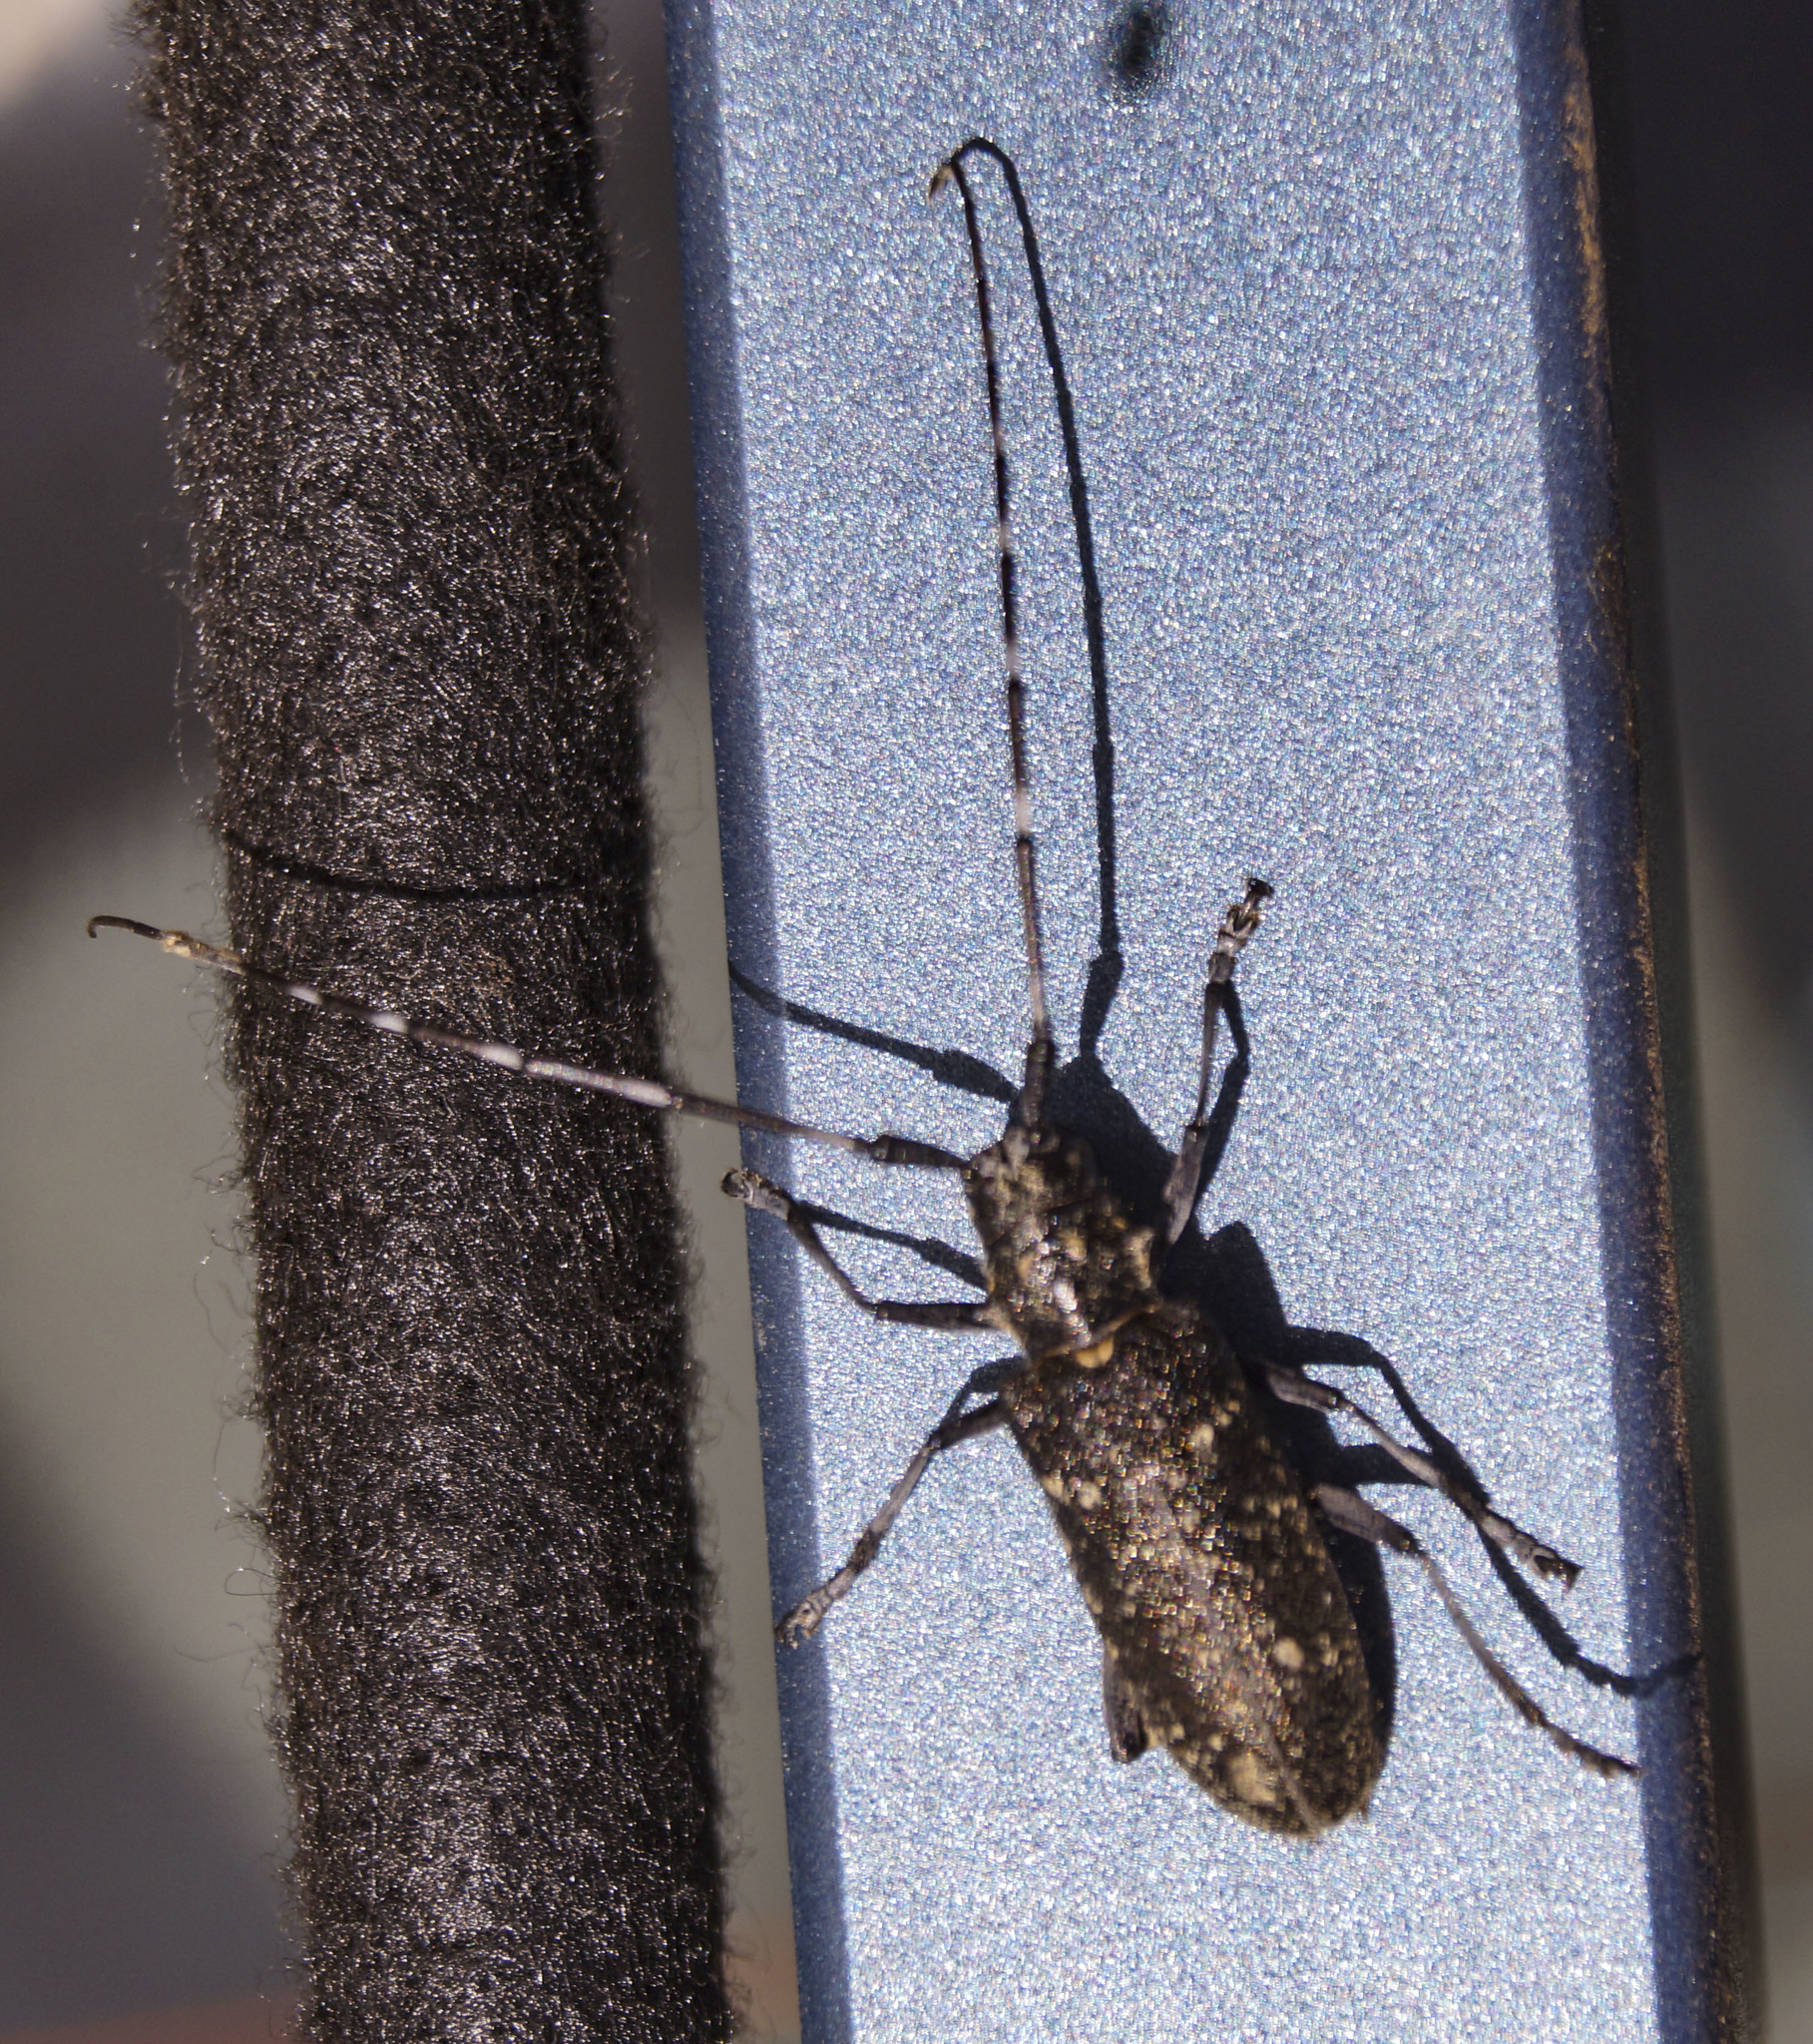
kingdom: Animalia
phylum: Arthropoda
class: Insecta
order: Coleoptera
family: Cerambycidae
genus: Monochamus
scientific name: Monochamus sutor
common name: Pine sawyer
